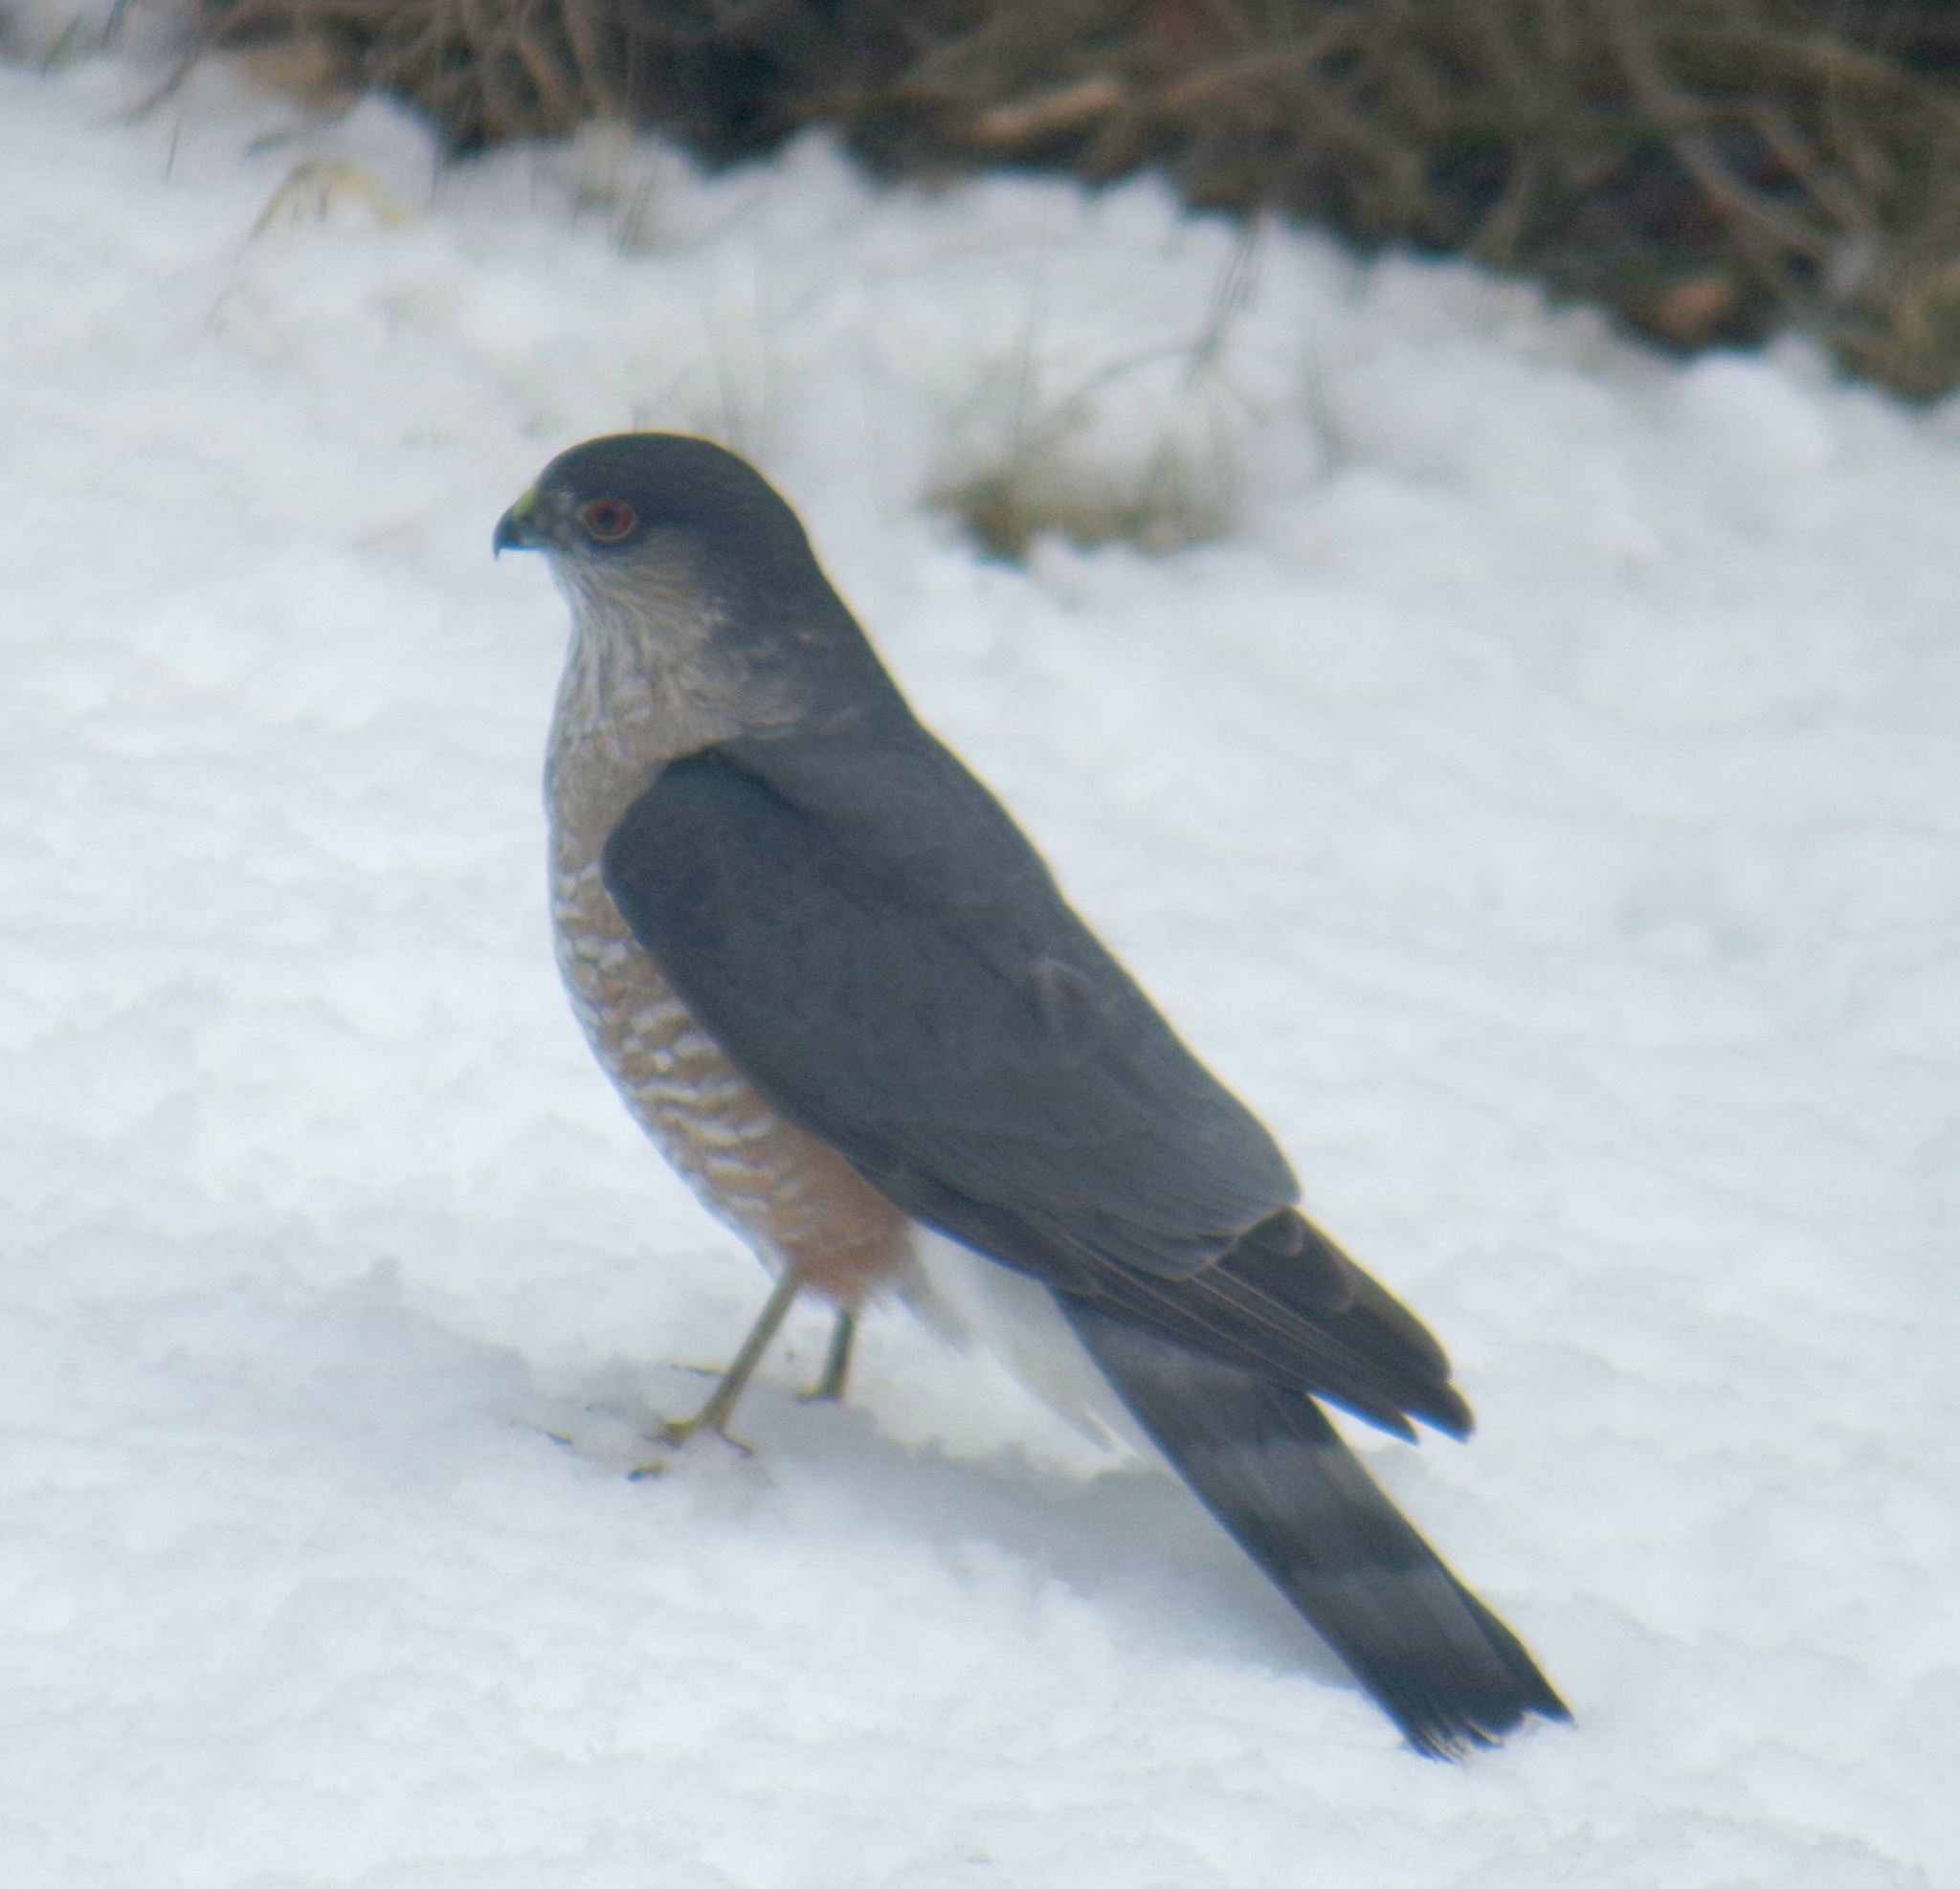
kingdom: Animalia
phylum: Chordata
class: Aves
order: Accipitriformes
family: Accipitridae
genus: Accipiter
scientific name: Accipiter striatus
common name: Sharp-shinned hawk
